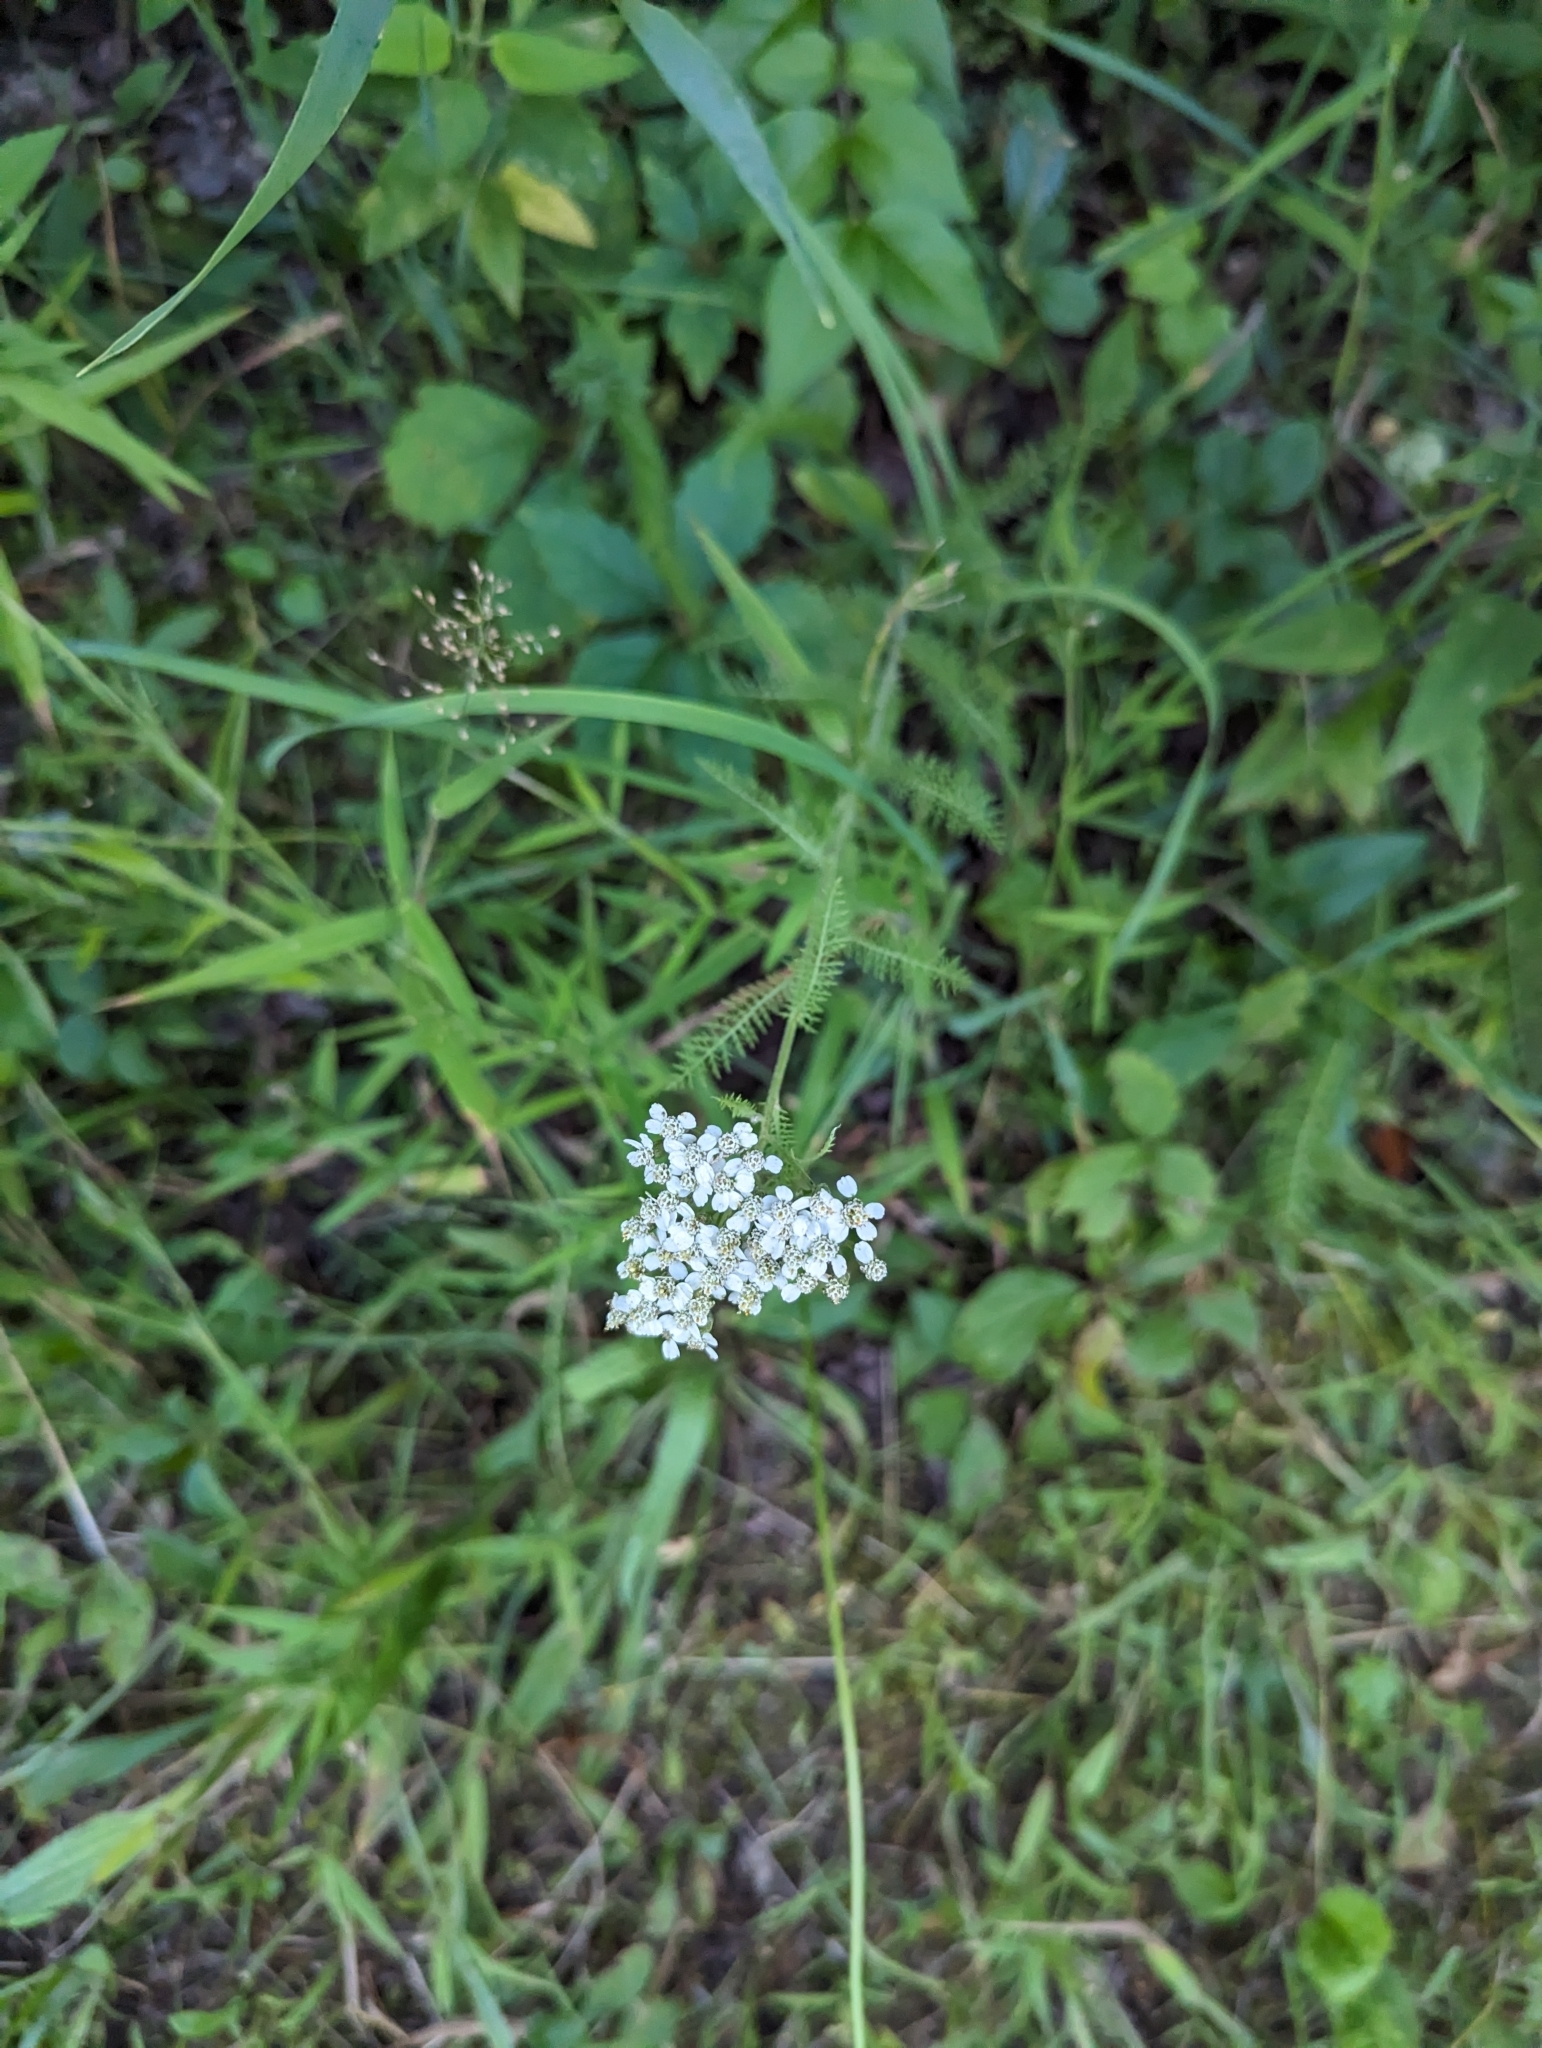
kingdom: Plantae
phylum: Tracheophyta
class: Magnoliopsida
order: Asterales
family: Asteraceae
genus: Achillea
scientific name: Achillea millefolium
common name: Yarrow
